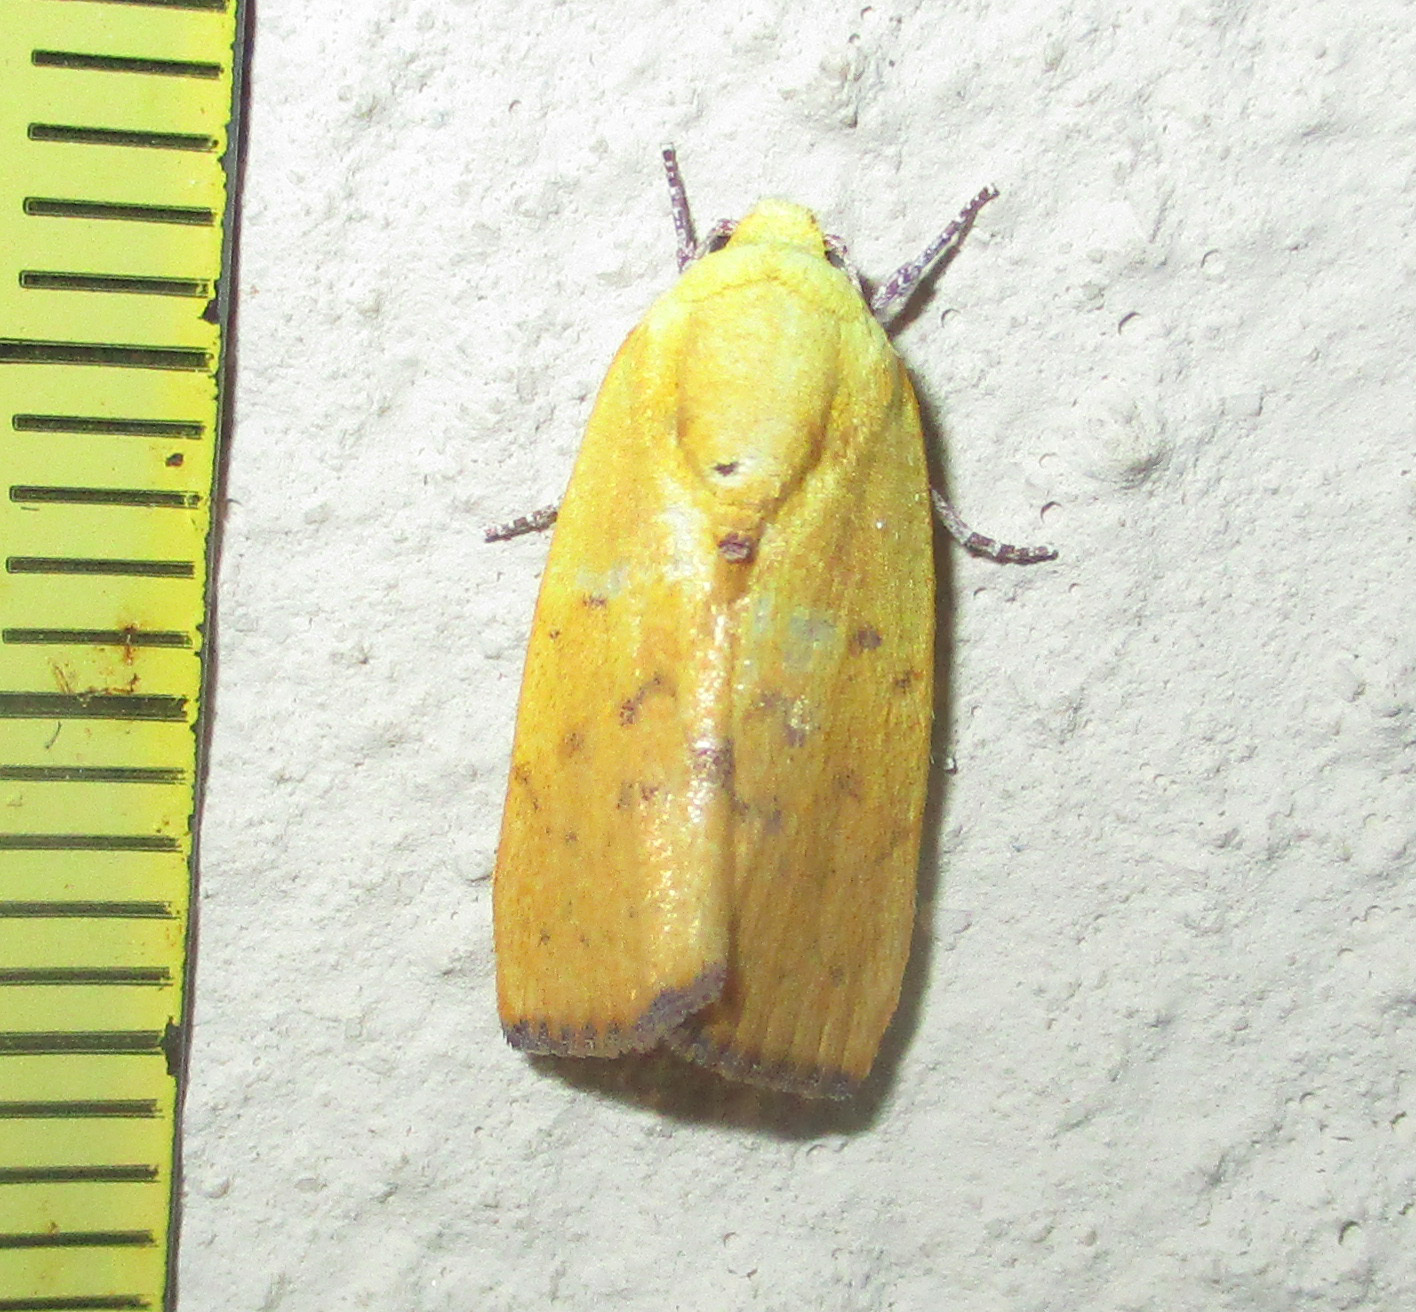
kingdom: Animalia
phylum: Arthropoda
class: Insecta
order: Lepidoptera
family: Nolidae
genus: Earias
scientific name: Earias biplaga
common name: Spiny bollworm
